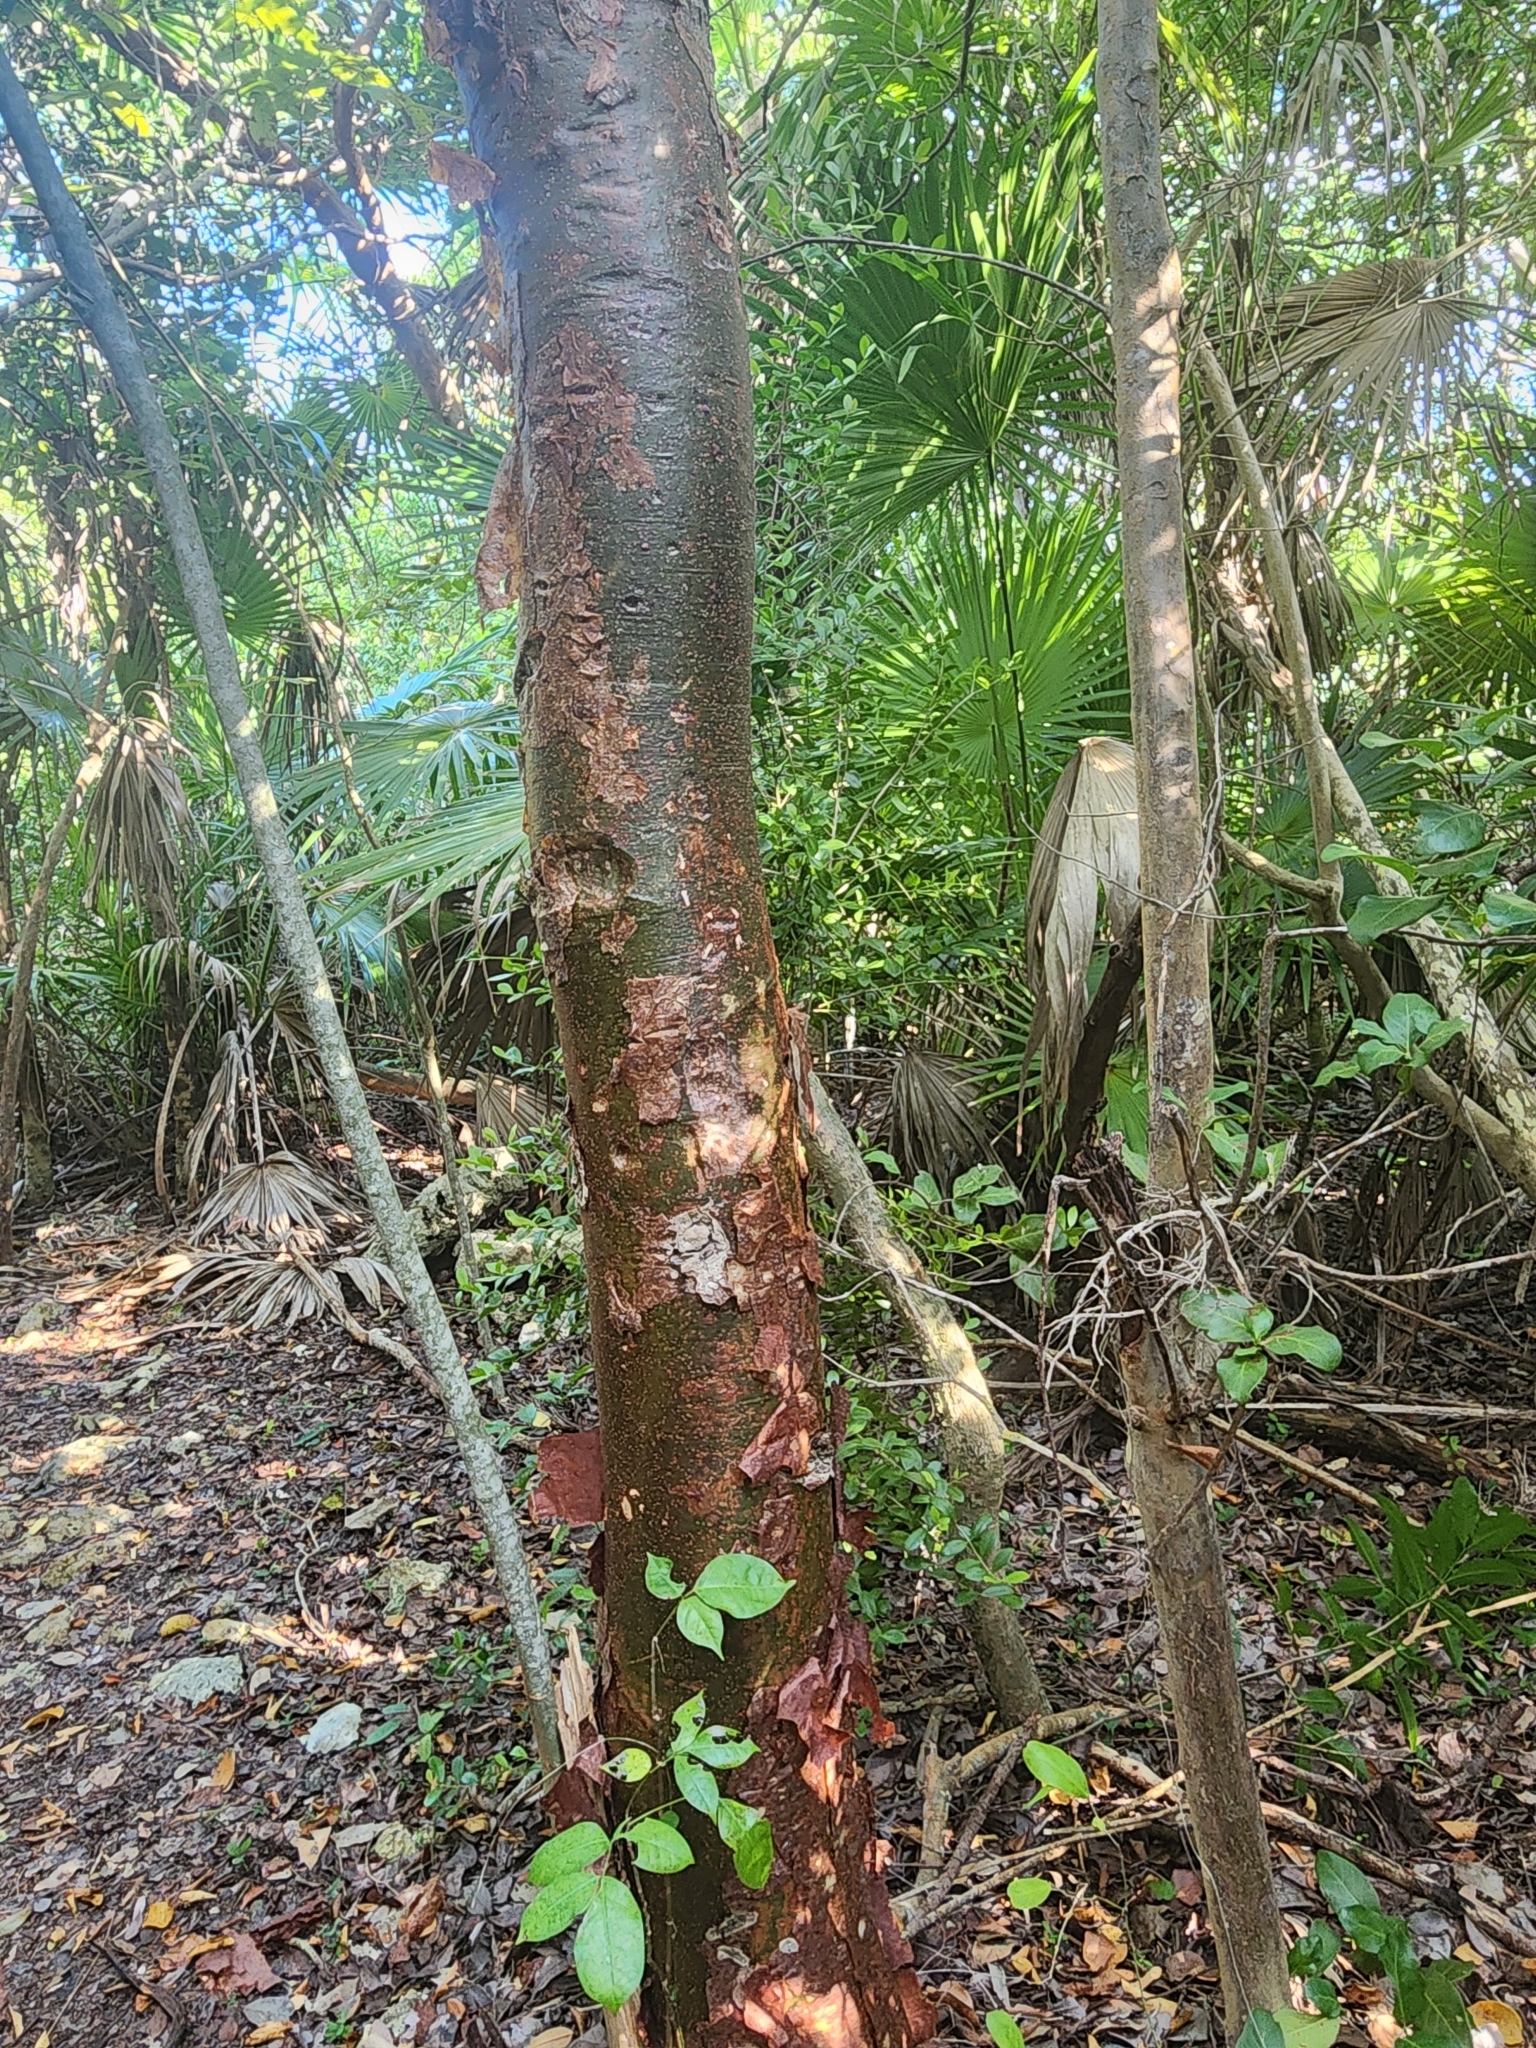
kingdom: Plantae
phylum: Tracheophyta
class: Magnoliopsida
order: Sapindales
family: Burseraceae
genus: Bursera
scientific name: Bursera simaruba
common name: Turpentine tree
